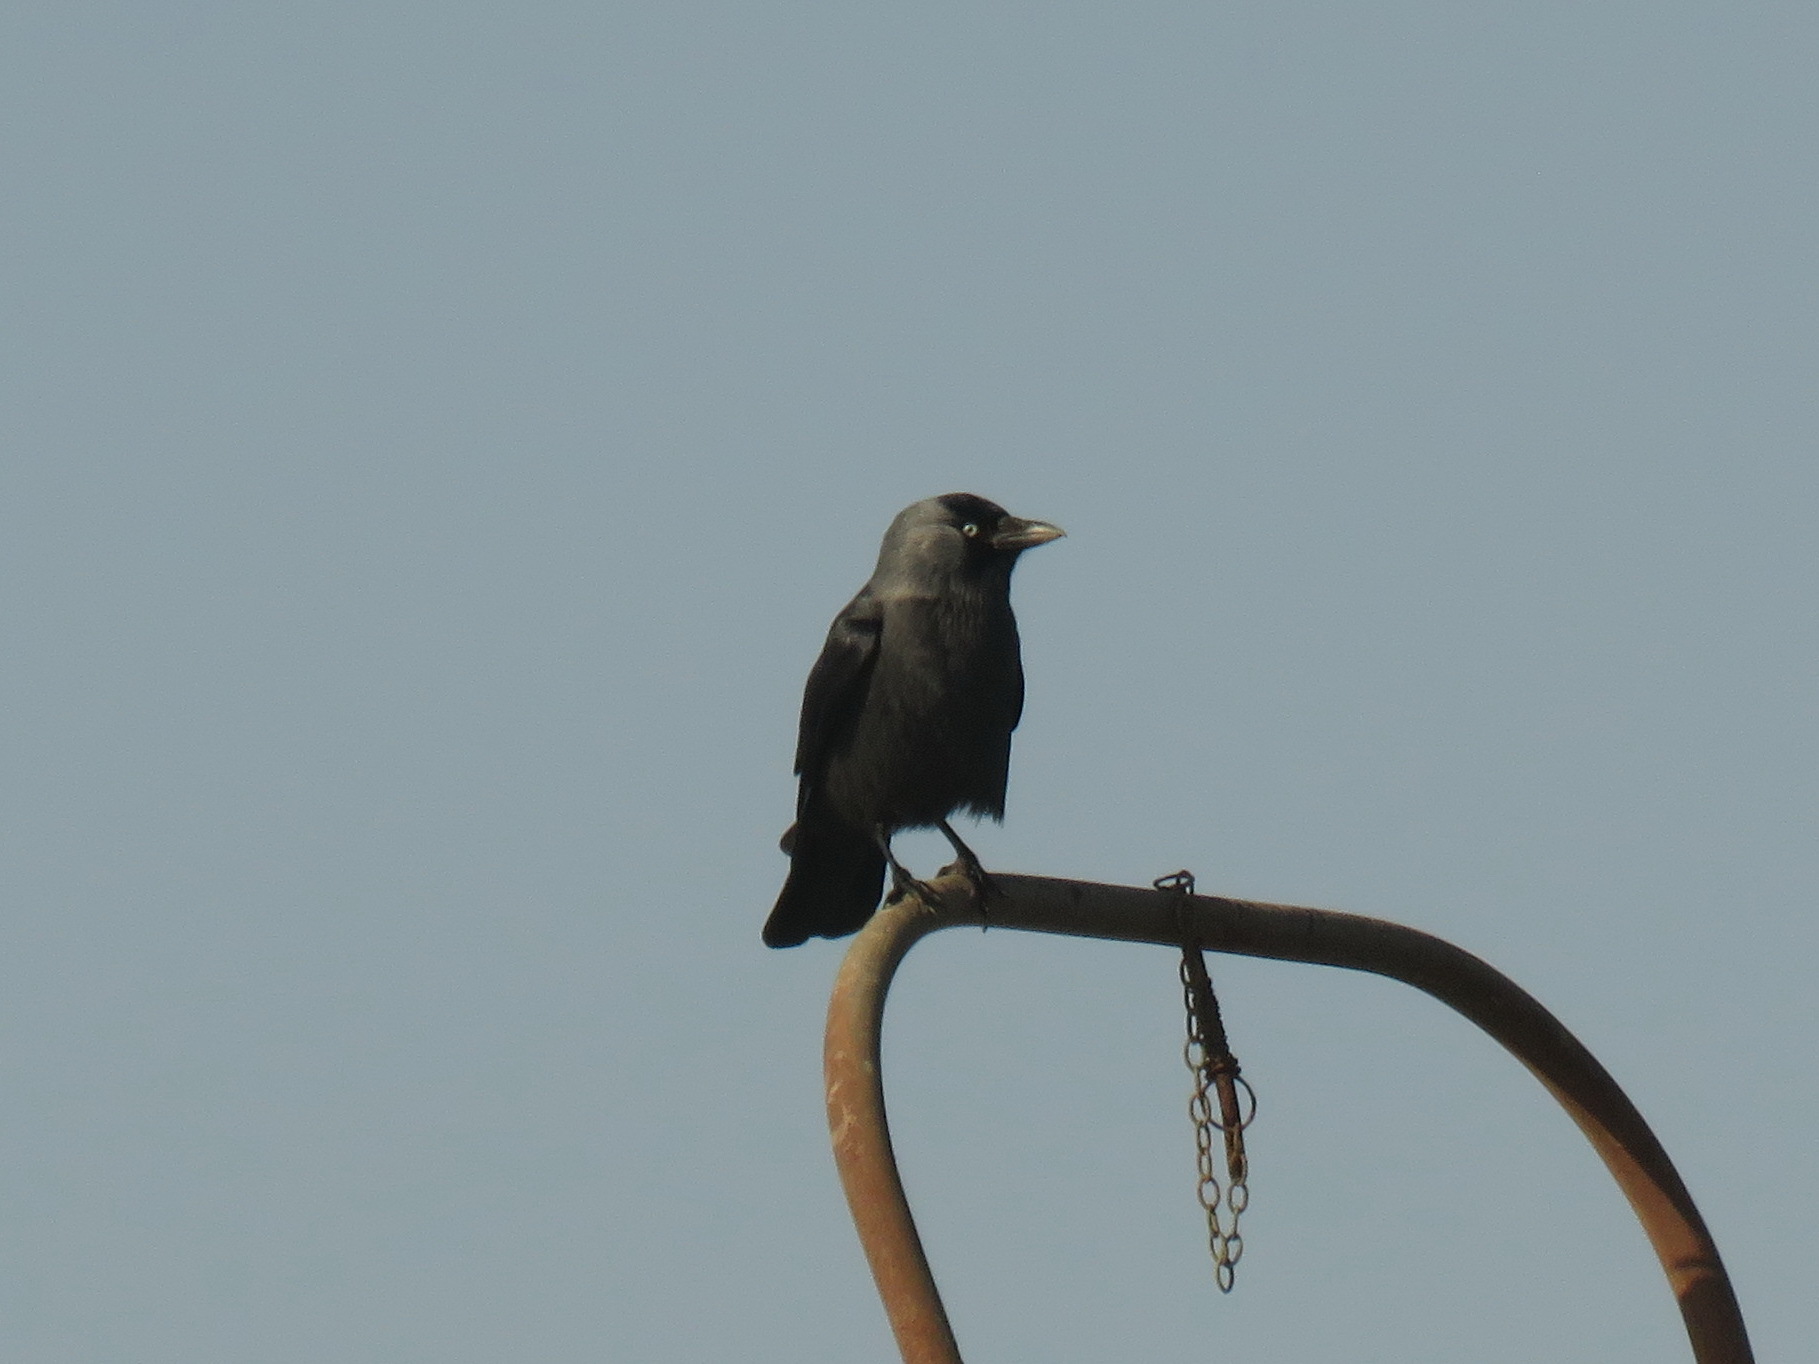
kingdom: Animalia
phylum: Chordata
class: Aves
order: Passeriformes
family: Corvidae
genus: Coloeus
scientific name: Coloeus monedula
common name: Western jackdaw
